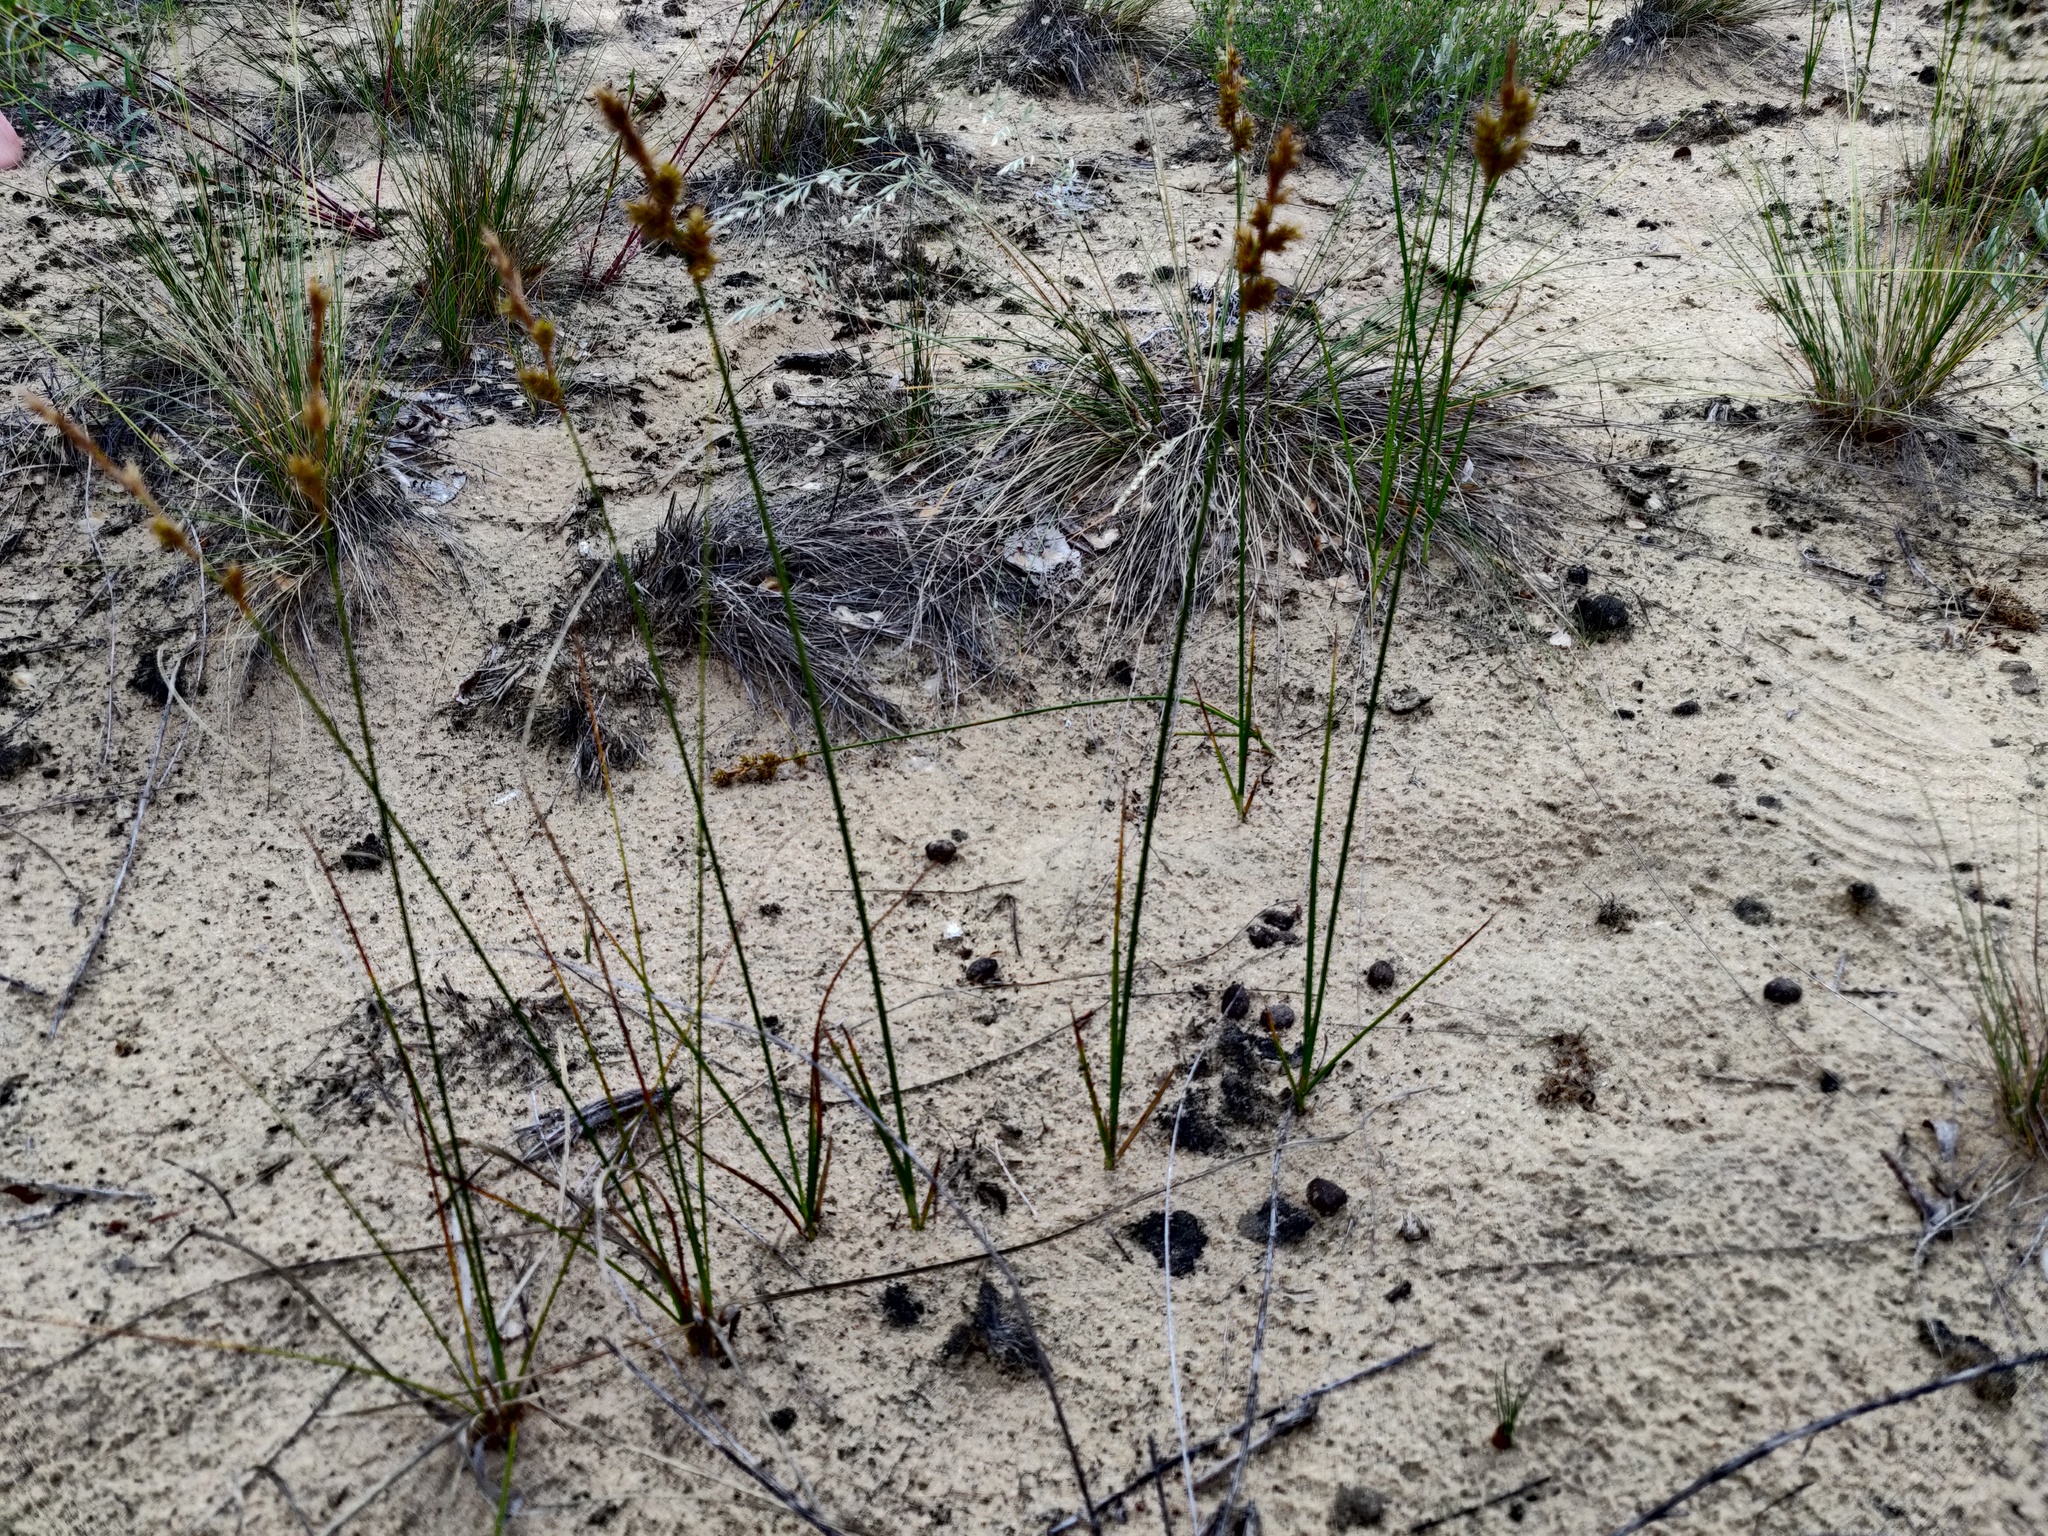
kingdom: Plantae
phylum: Tracheophyta
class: Liliopsida
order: Poales
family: Cyperaceae
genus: Carex
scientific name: Carex colchica
